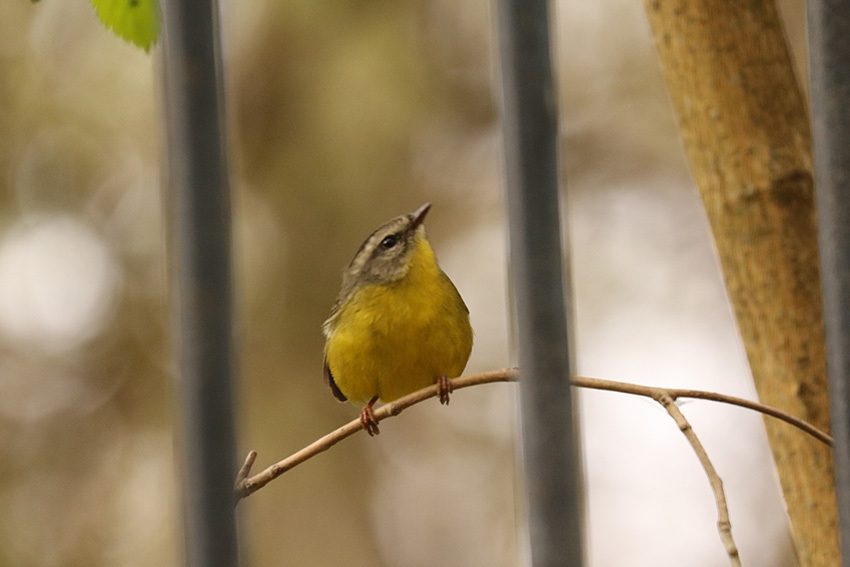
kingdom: Animalia
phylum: Chordata
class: Aves
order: Passeriformes
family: Parulidae
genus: Basileuterus
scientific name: Basileuterus culicivorus
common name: Golden-crowned warbler
